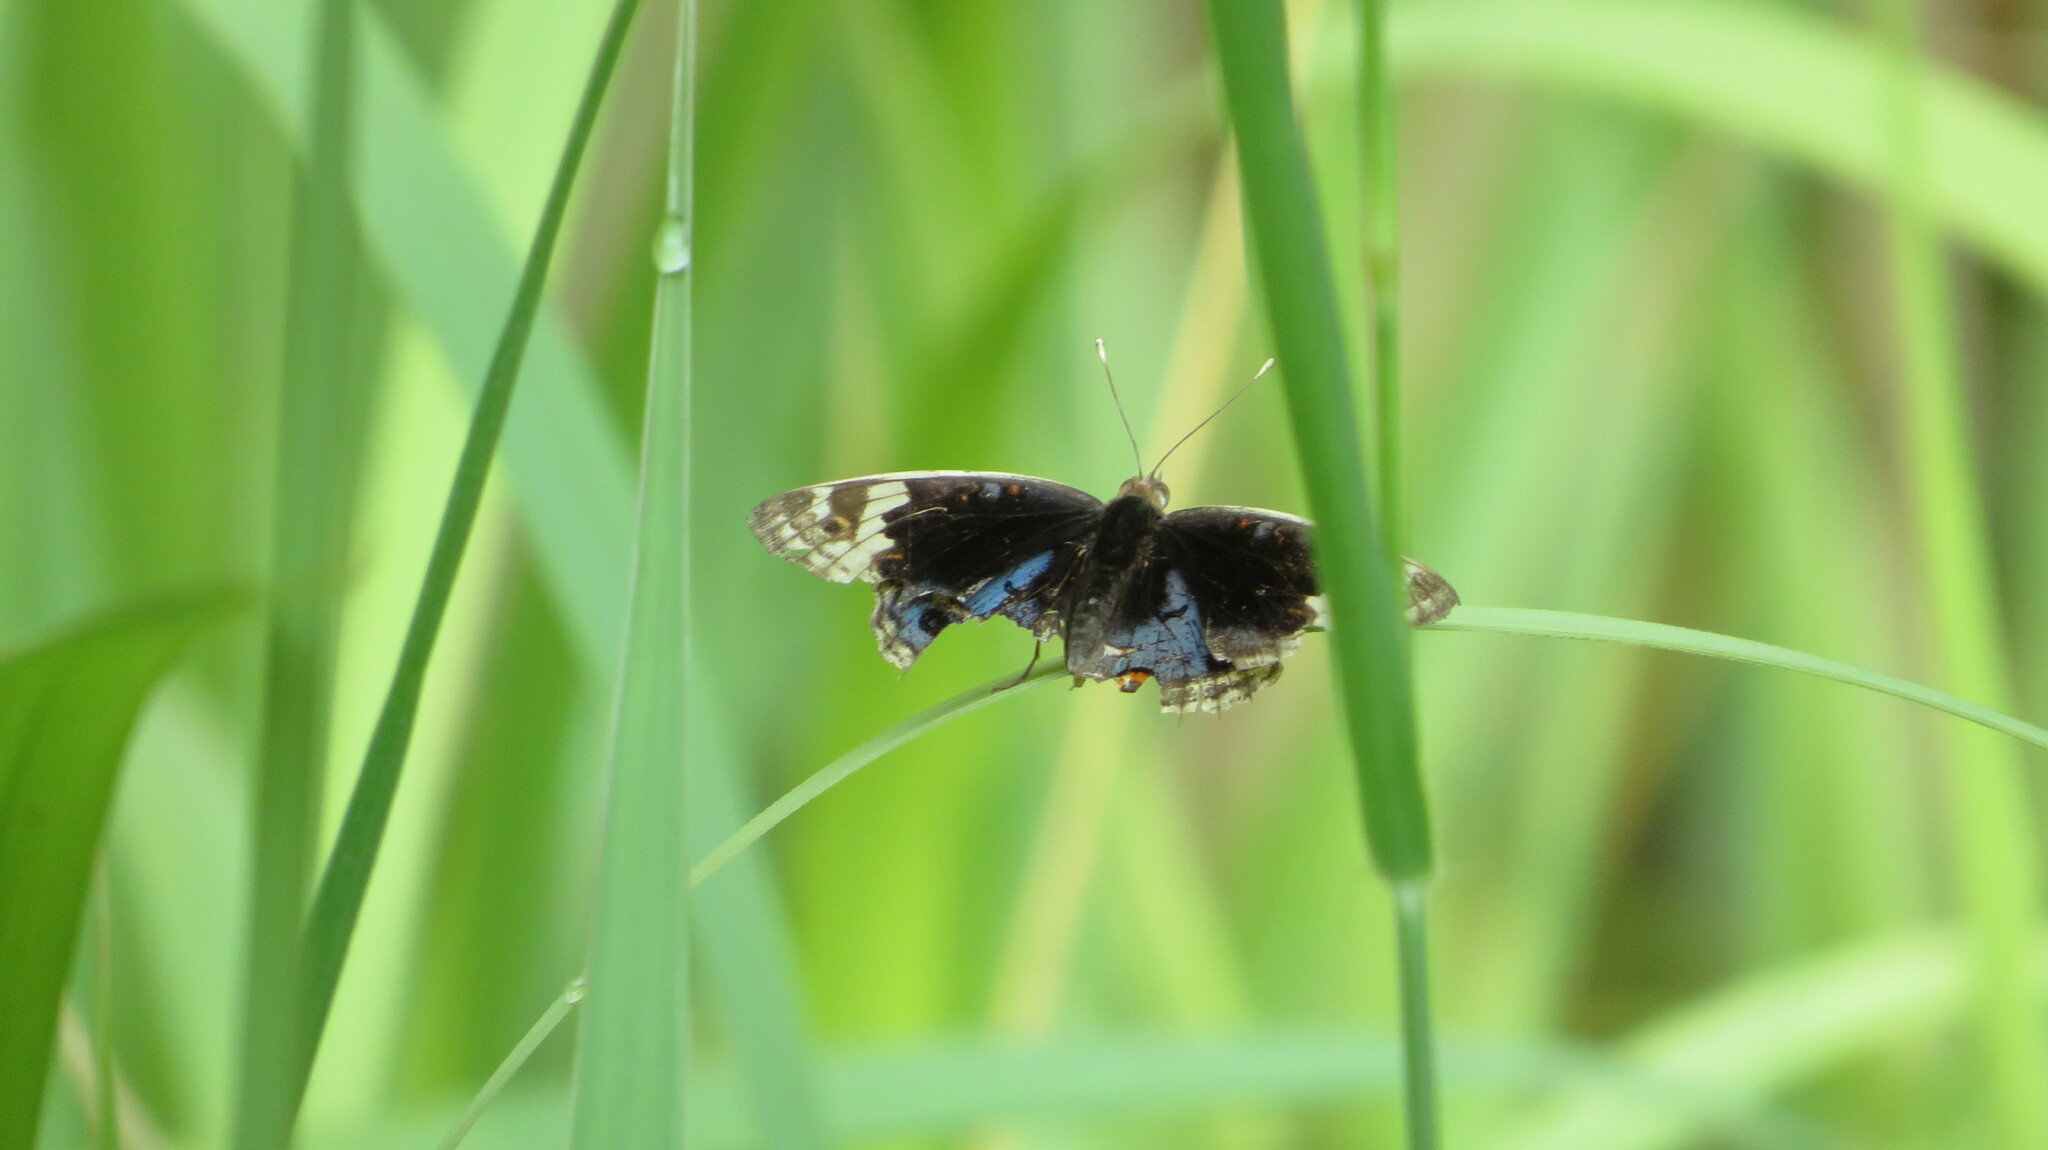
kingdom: Animalia
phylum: Arthropoda
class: Insecta
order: Lepidoptera
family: Nymphalidae
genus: Junonia
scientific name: Junonia orithya
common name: Blue pansy
